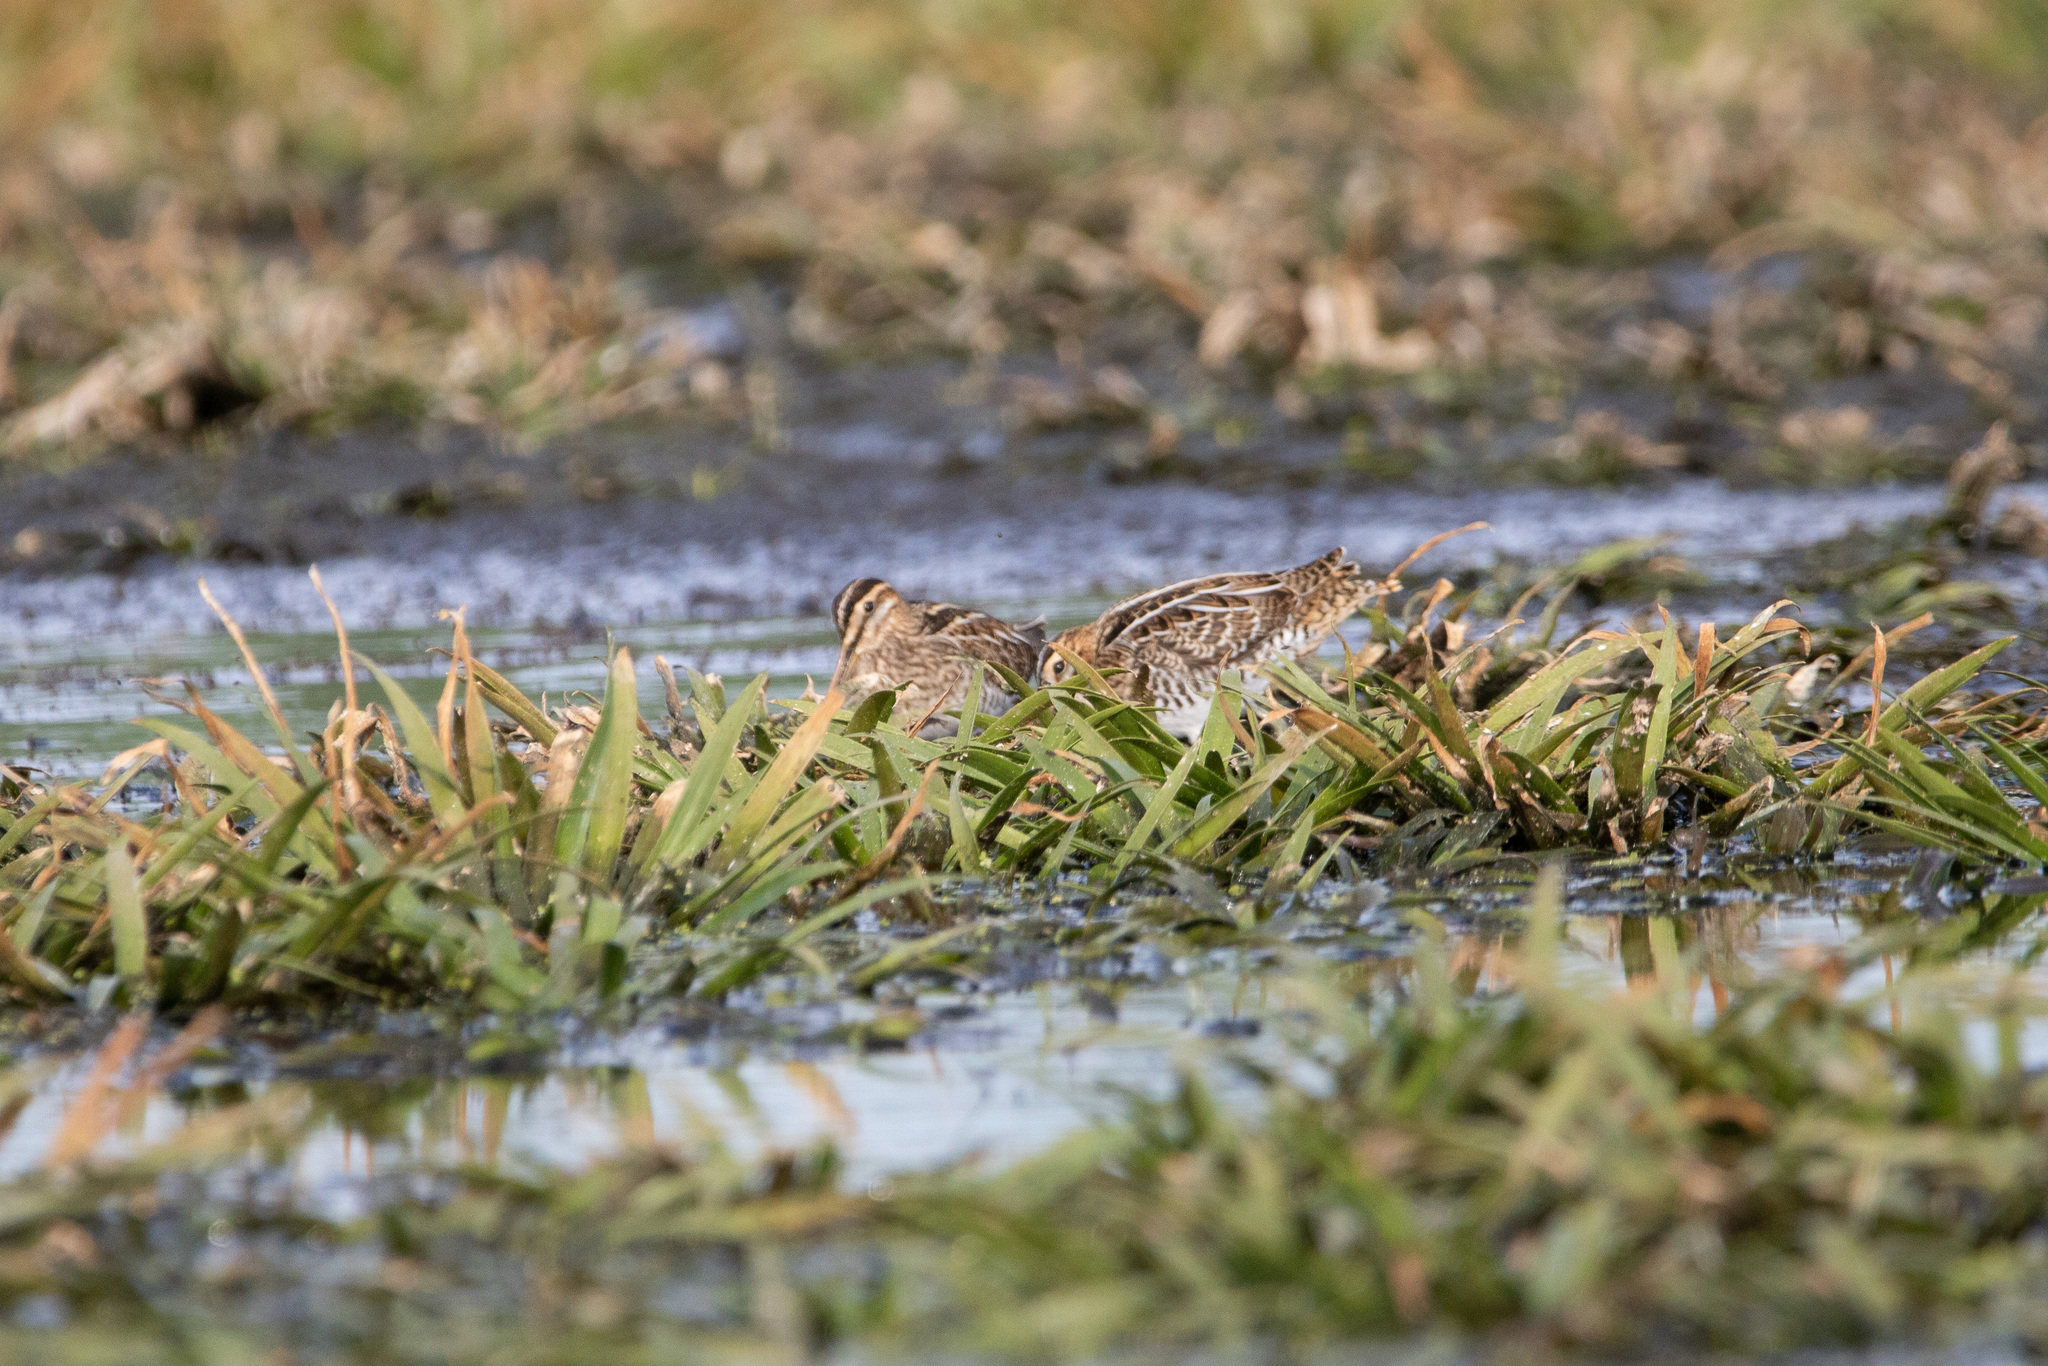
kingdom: Animalia
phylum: Chordata
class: Aves
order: Charadriiformes
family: Scolopacidae
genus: Gallinago
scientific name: Gallinago gallinago
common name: Common snipe
